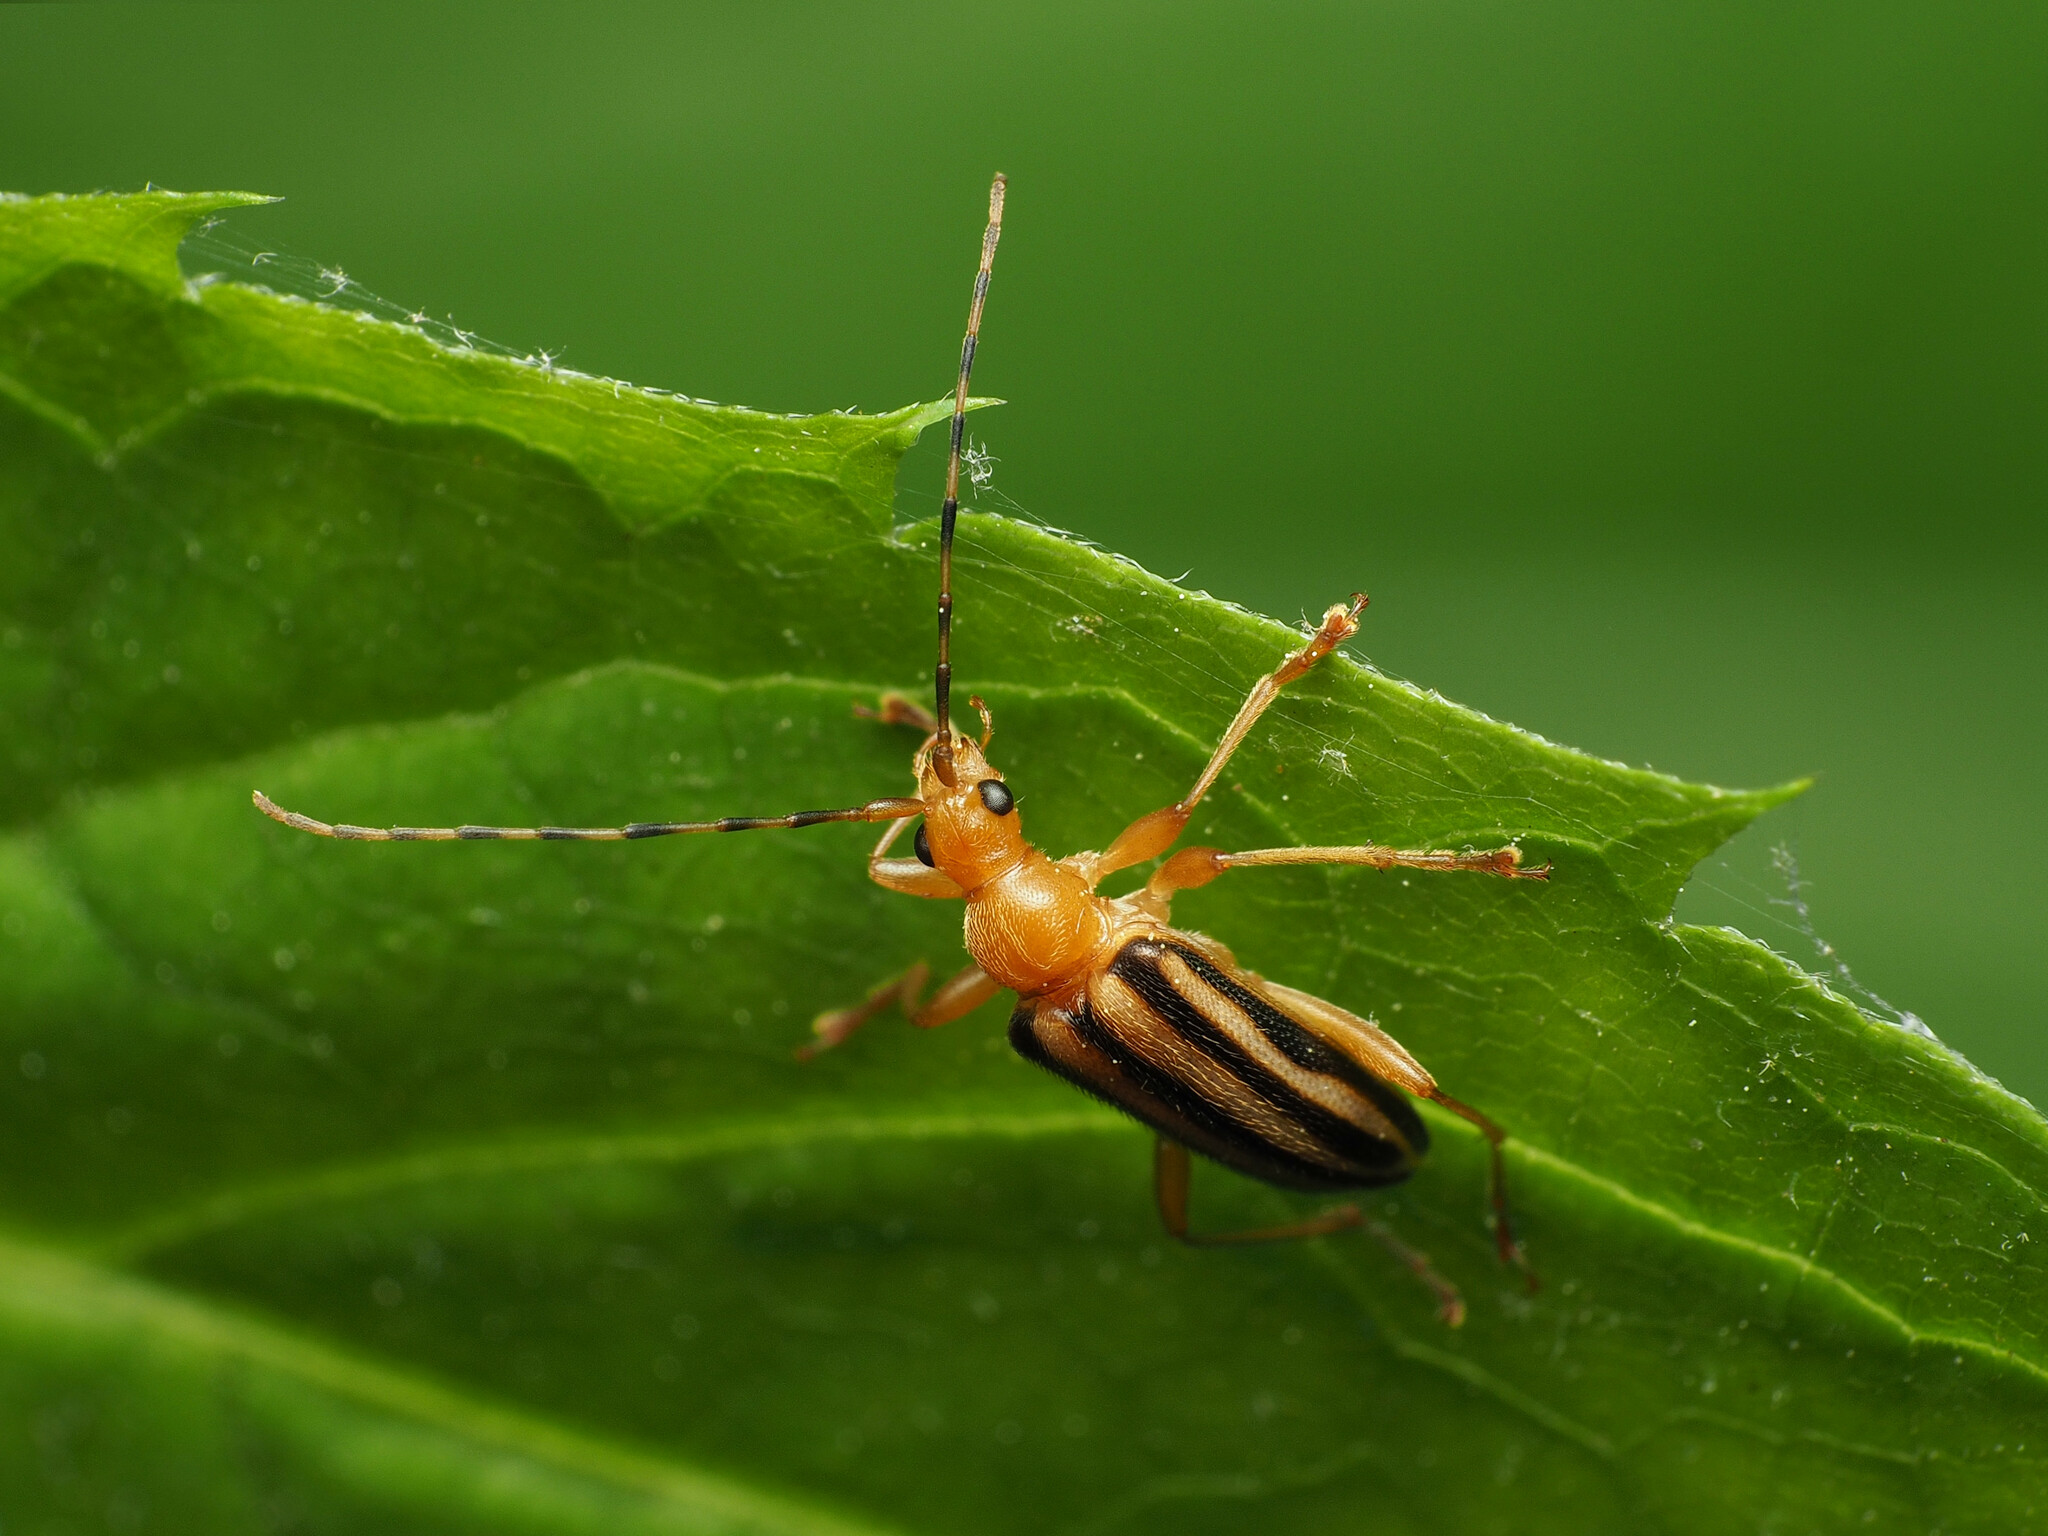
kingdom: Animalia
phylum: Arthropoda
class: Insecta
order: Coleoptera
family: Cerambycidae
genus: Metacmaeops
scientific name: Metacmaeops vittata
